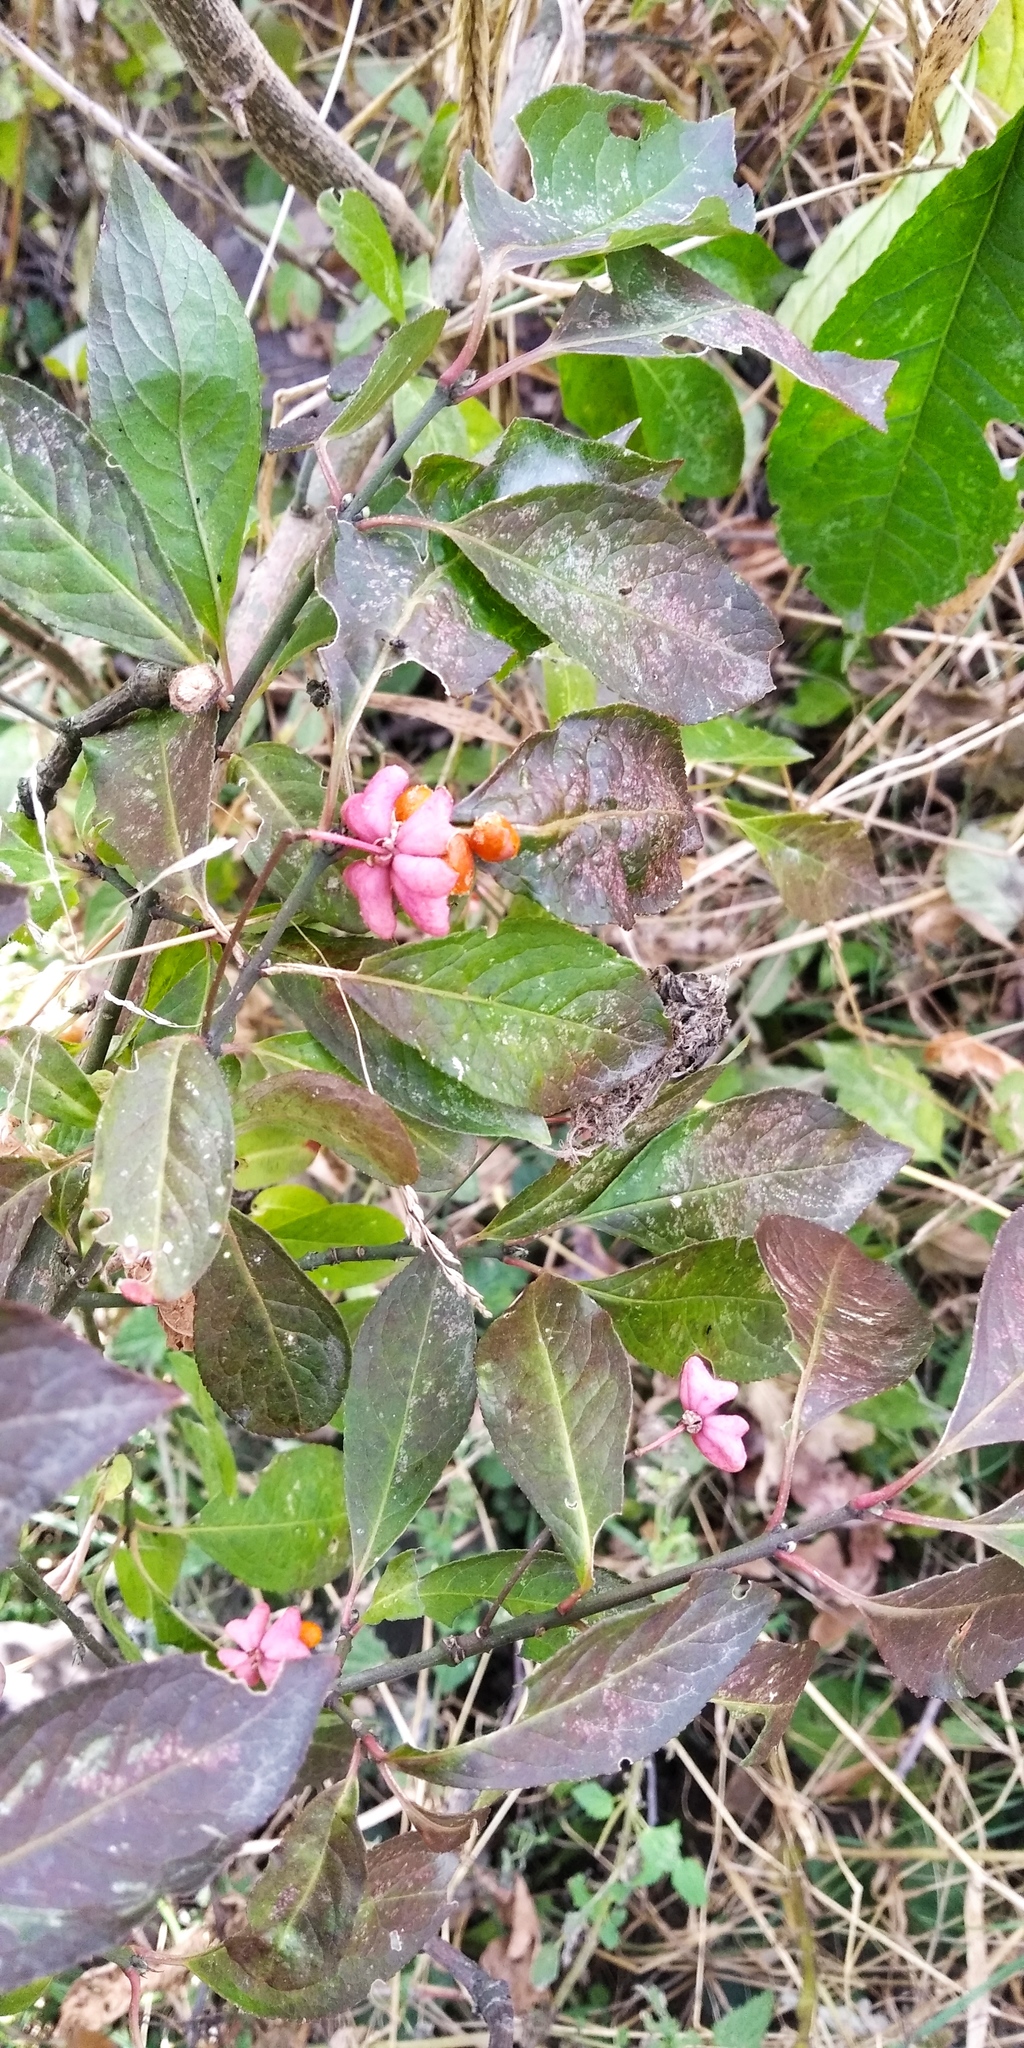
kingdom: Plantae
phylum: Tracheophyta
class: Magnoliopsida
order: Celastrales
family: Celastraceae
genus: Euonymus
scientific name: Euonymus europaeus
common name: Spindle
